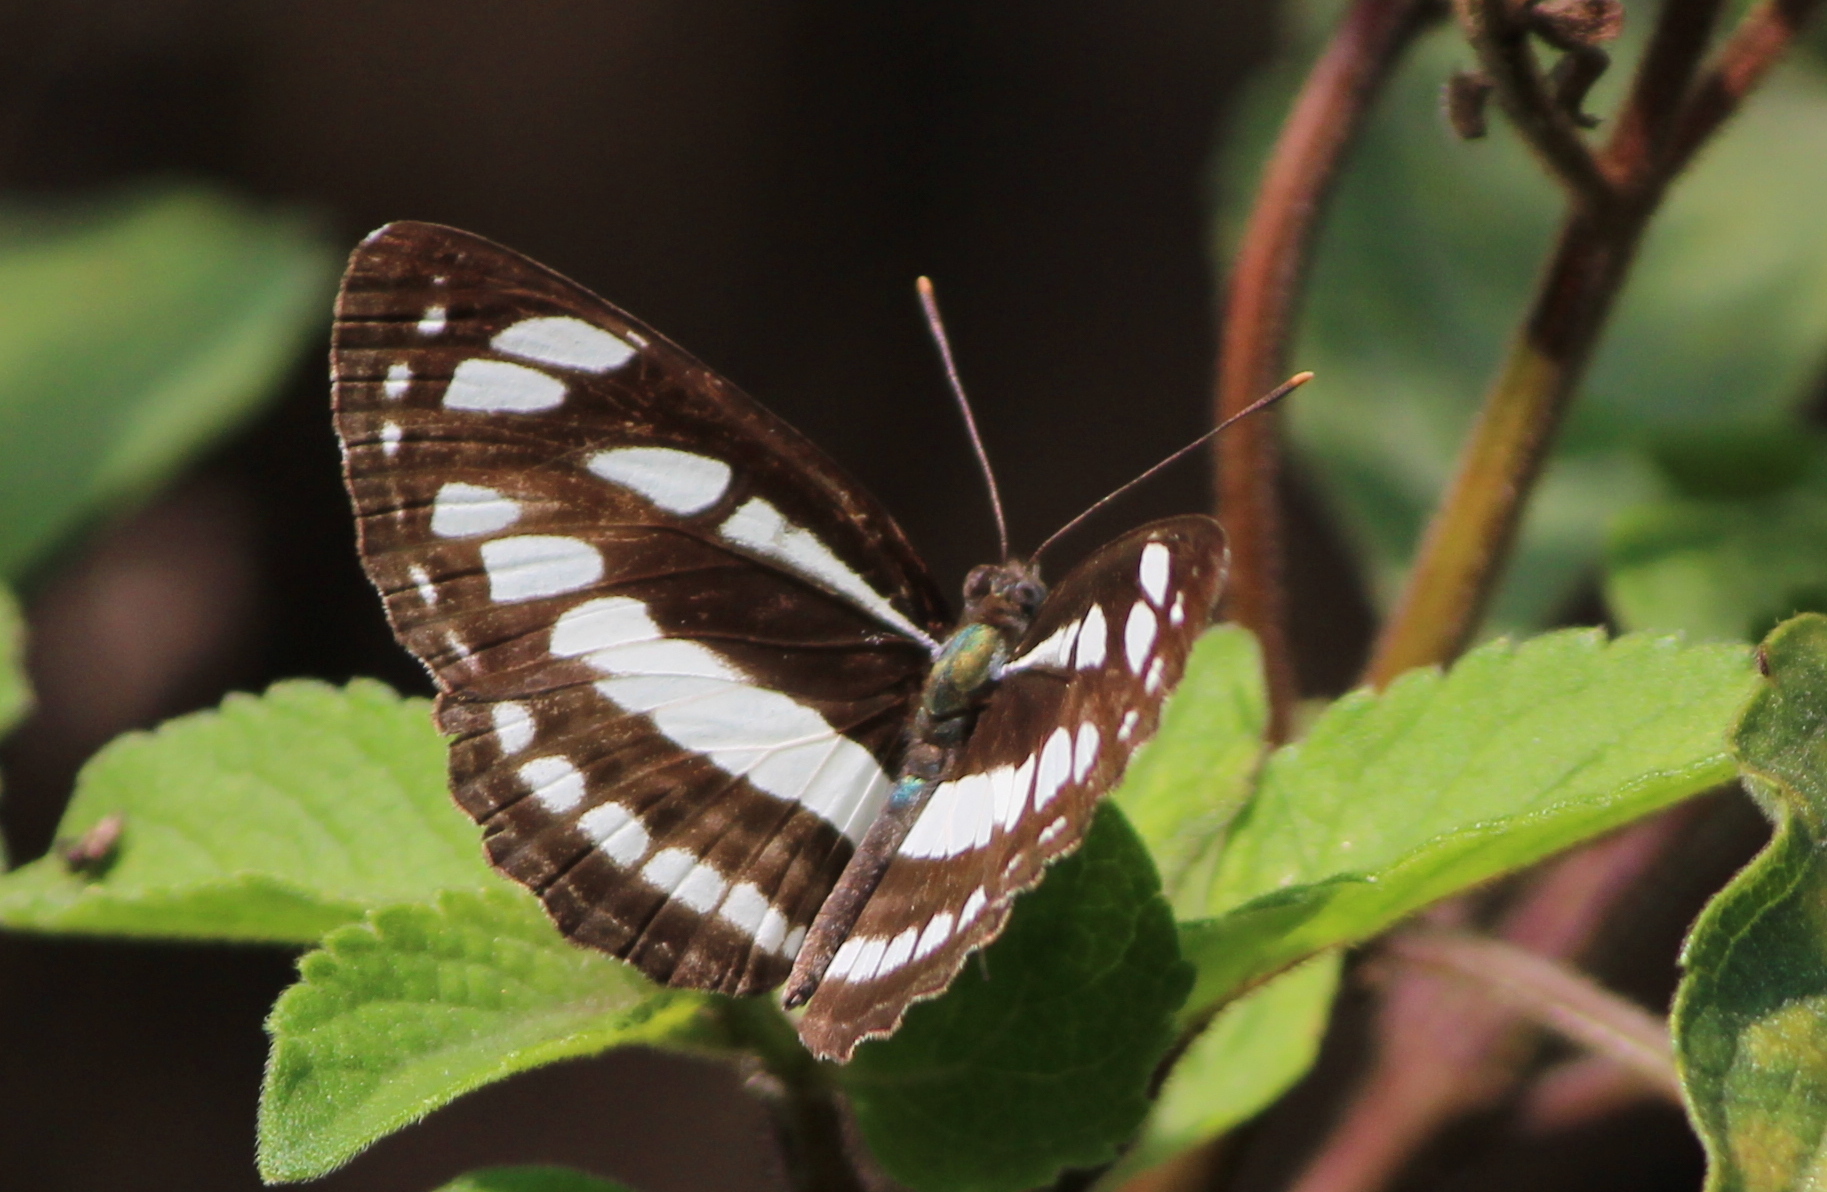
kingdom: Animalia
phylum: Arthropoda
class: Insecta
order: Lepidoptera
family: Nymphalidae
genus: Neptis
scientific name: Neptis hylas
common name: Common sailer
